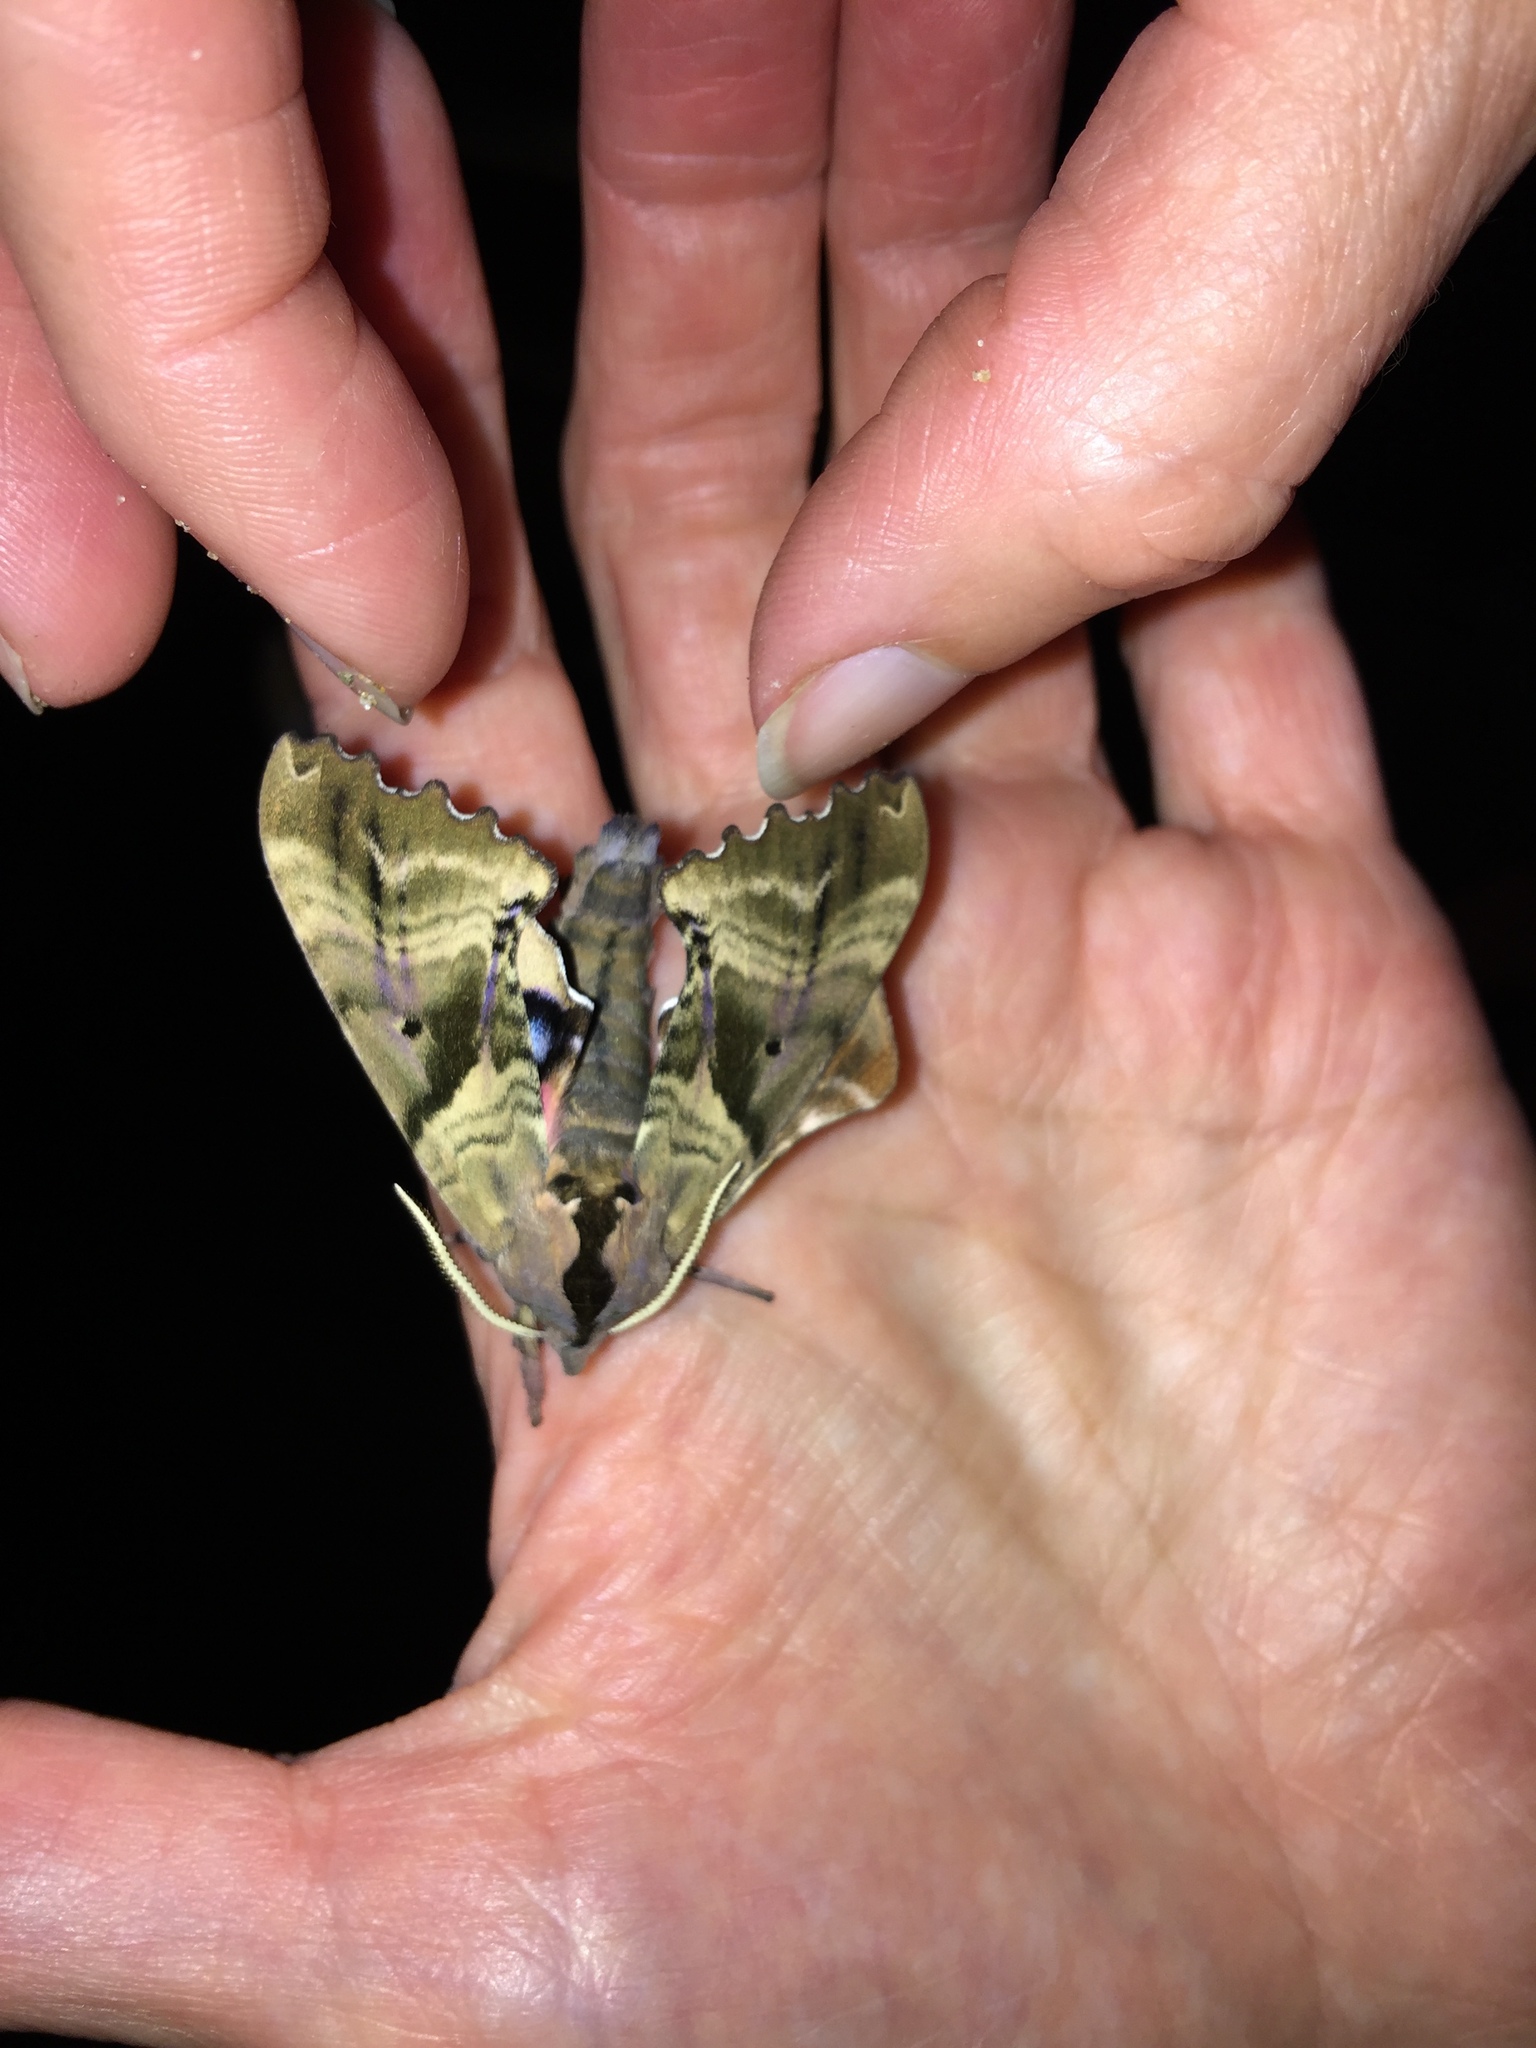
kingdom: Animalia
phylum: Arthropoda
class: Insecta
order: Lepidoptera
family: Sphingidae
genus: Paonias
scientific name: Paonias excaecata
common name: Blind-eyed sphinx
